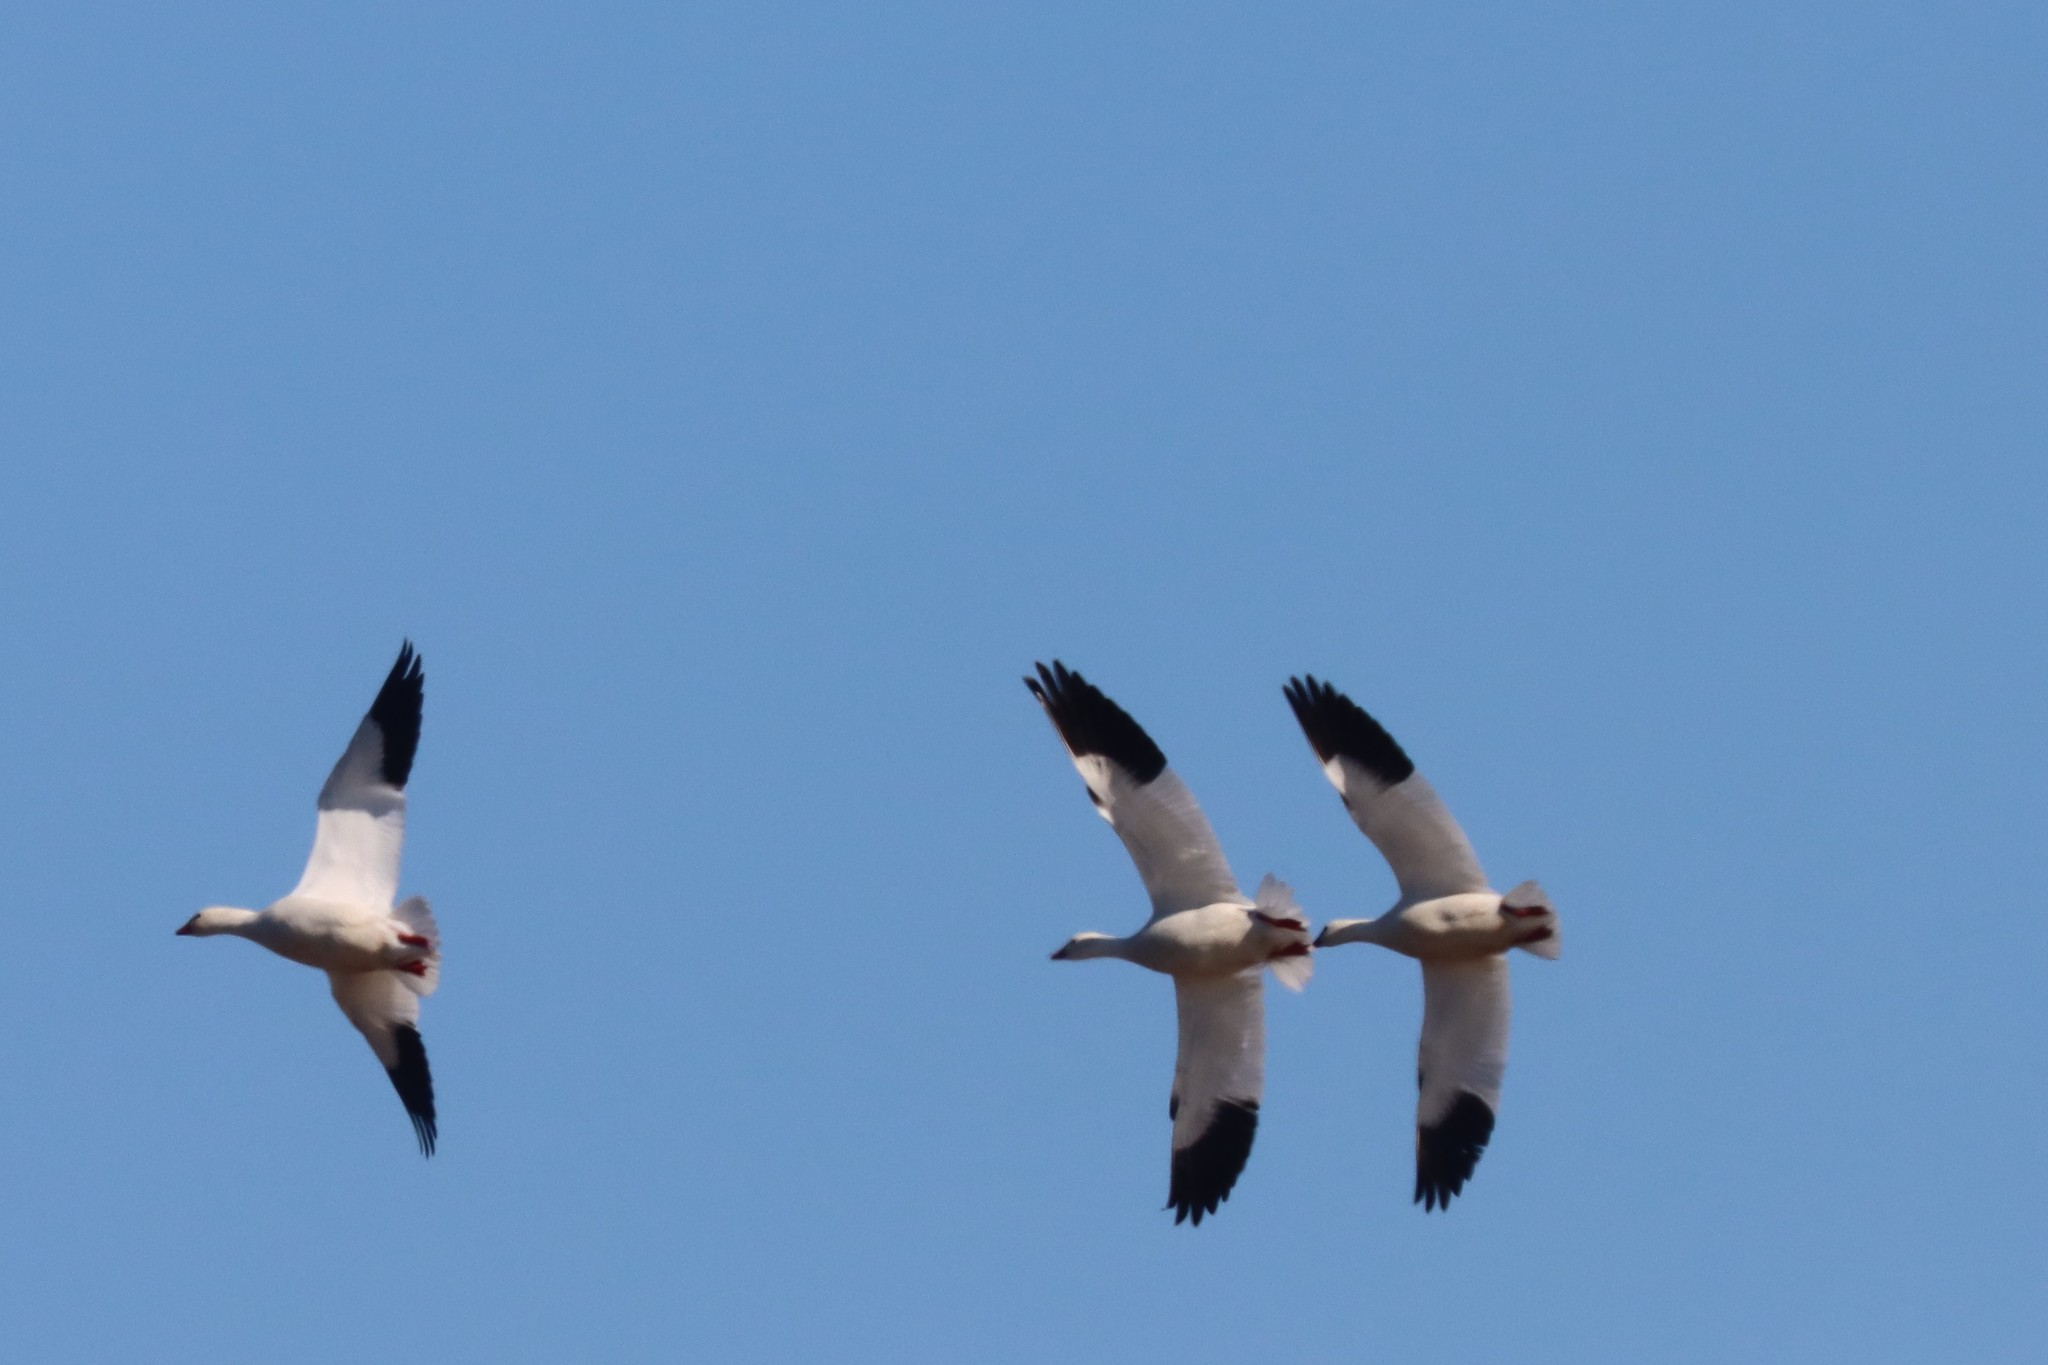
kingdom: Animalia
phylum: Chordata
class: Aves
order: Anseriformes
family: Anatidae
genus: Anser
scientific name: Anser caerulescens
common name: Snow goose
